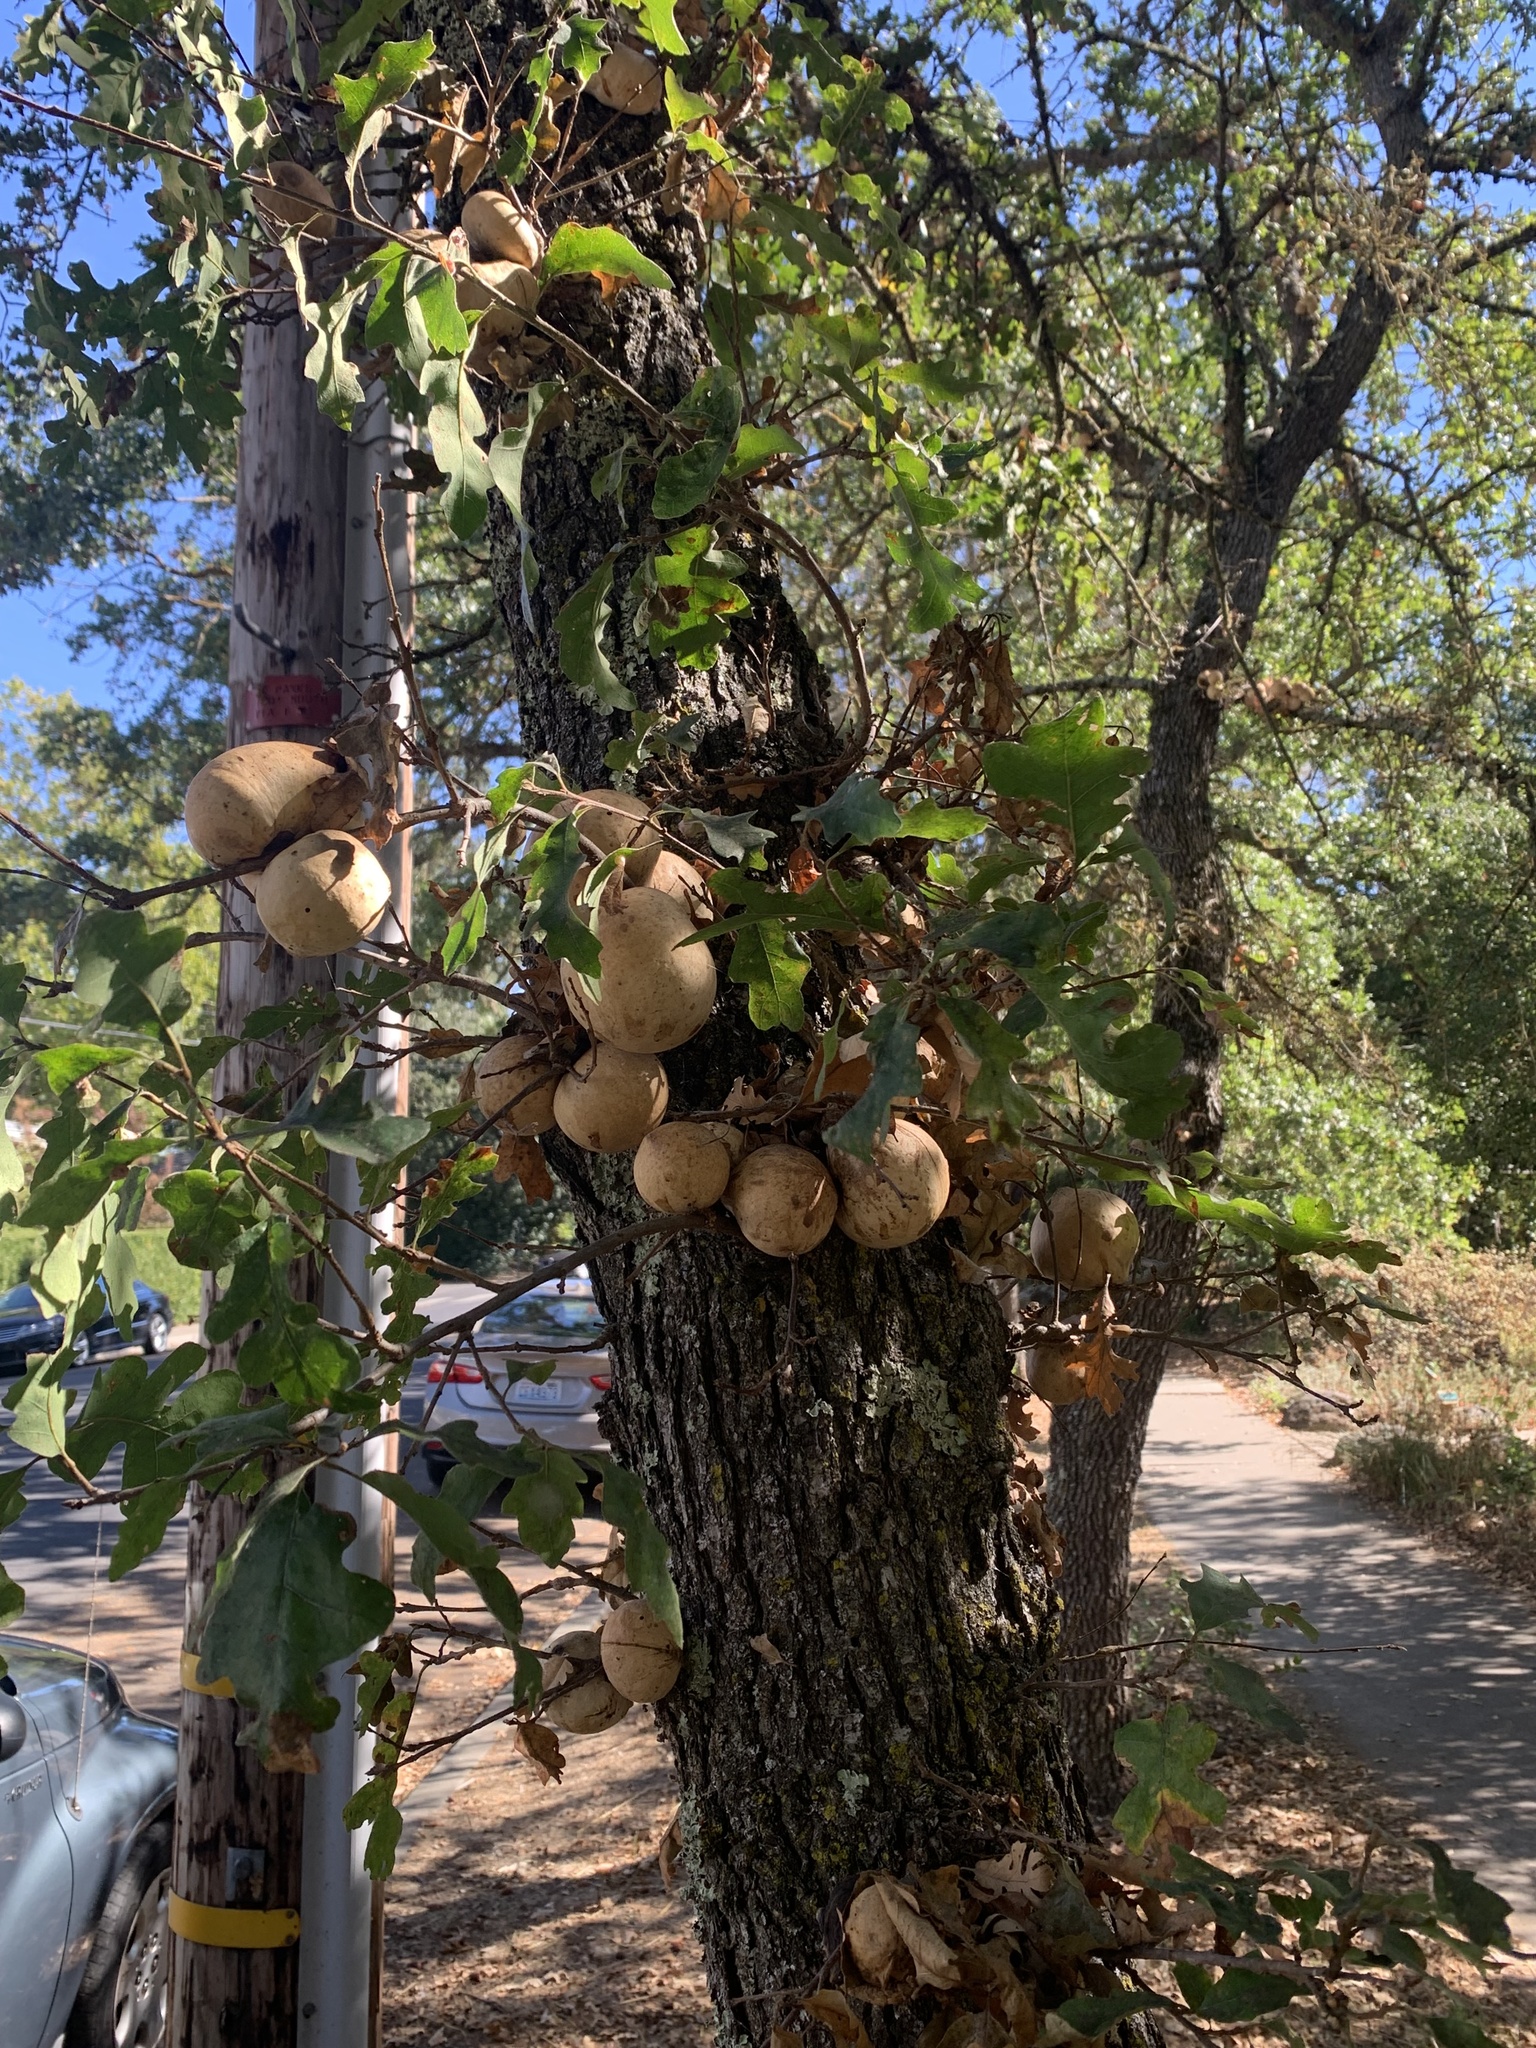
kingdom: Animalia
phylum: Arthropoda
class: Insecta
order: Hymenoptera
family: Cynipidae
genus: Andricus
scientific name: Andricus quercuscalifornicus
